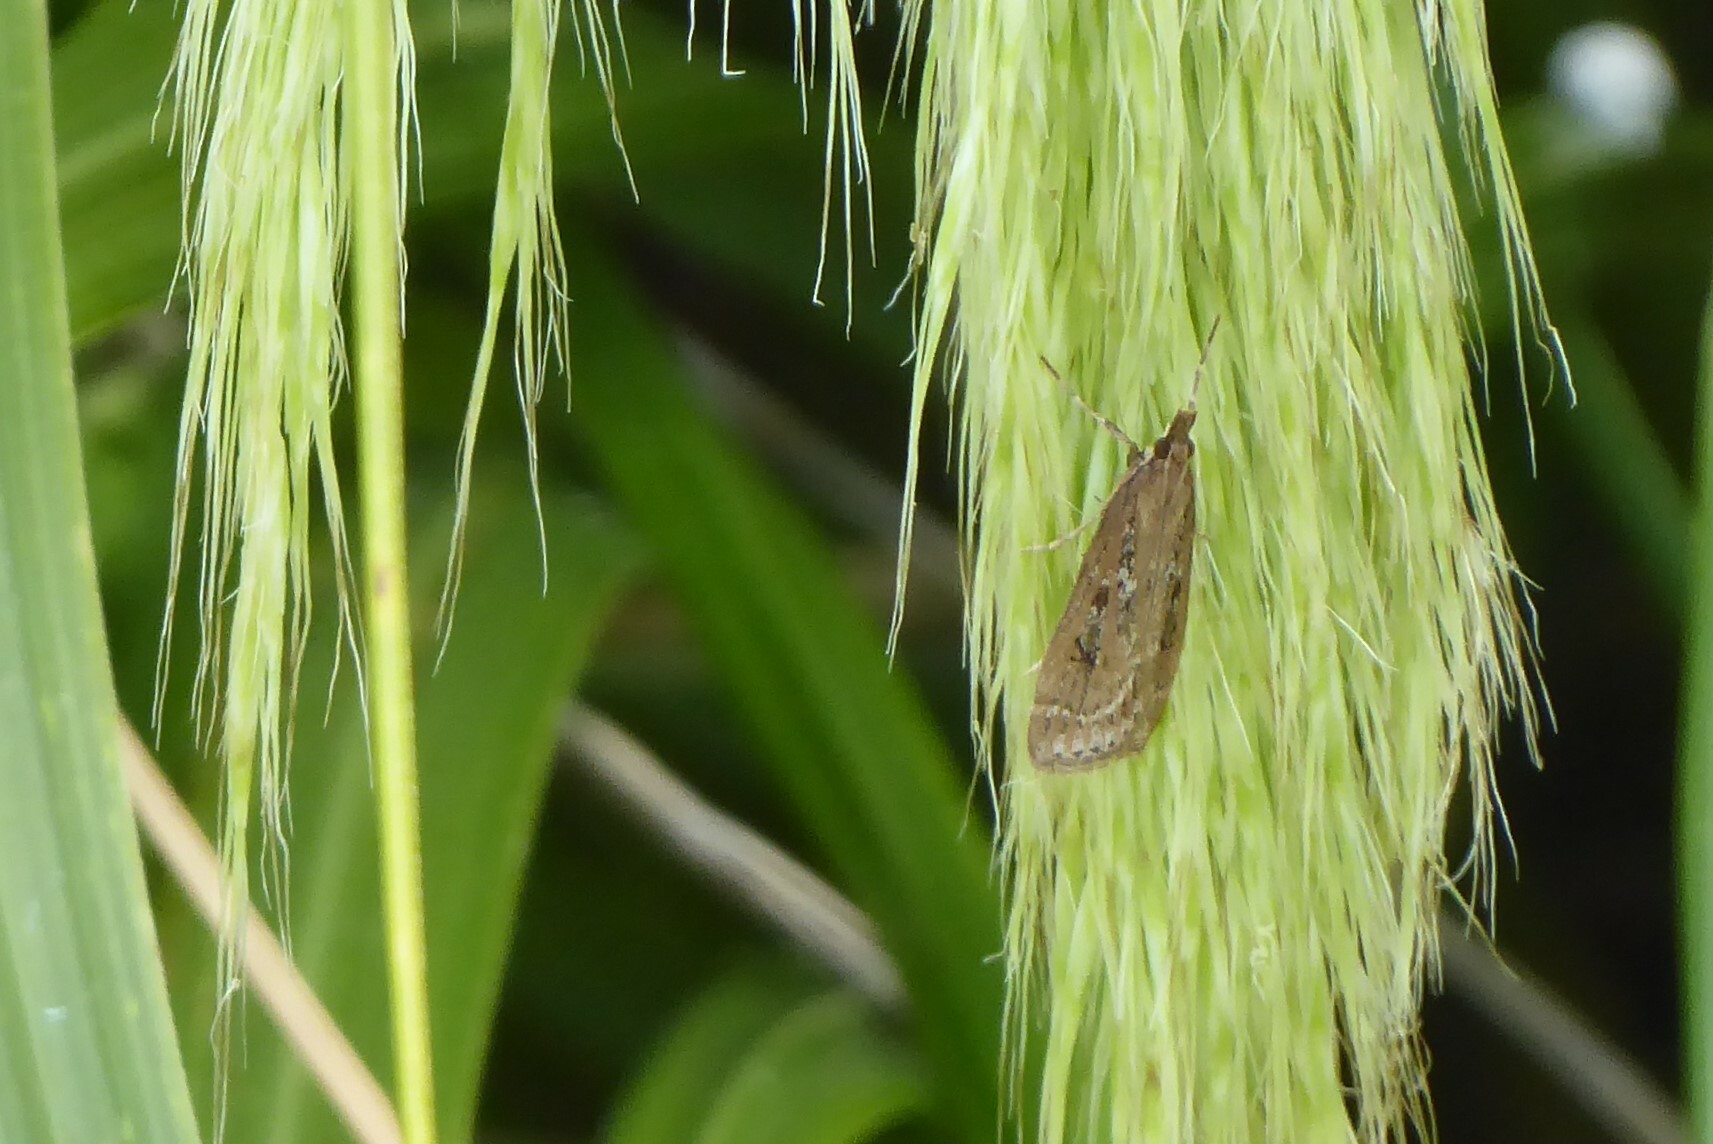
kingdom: Animalia
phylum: Arthropoda
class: Insecta
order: Lepidoptera
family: Crambidae
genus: Eudonia
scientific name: Eudonia octophora
